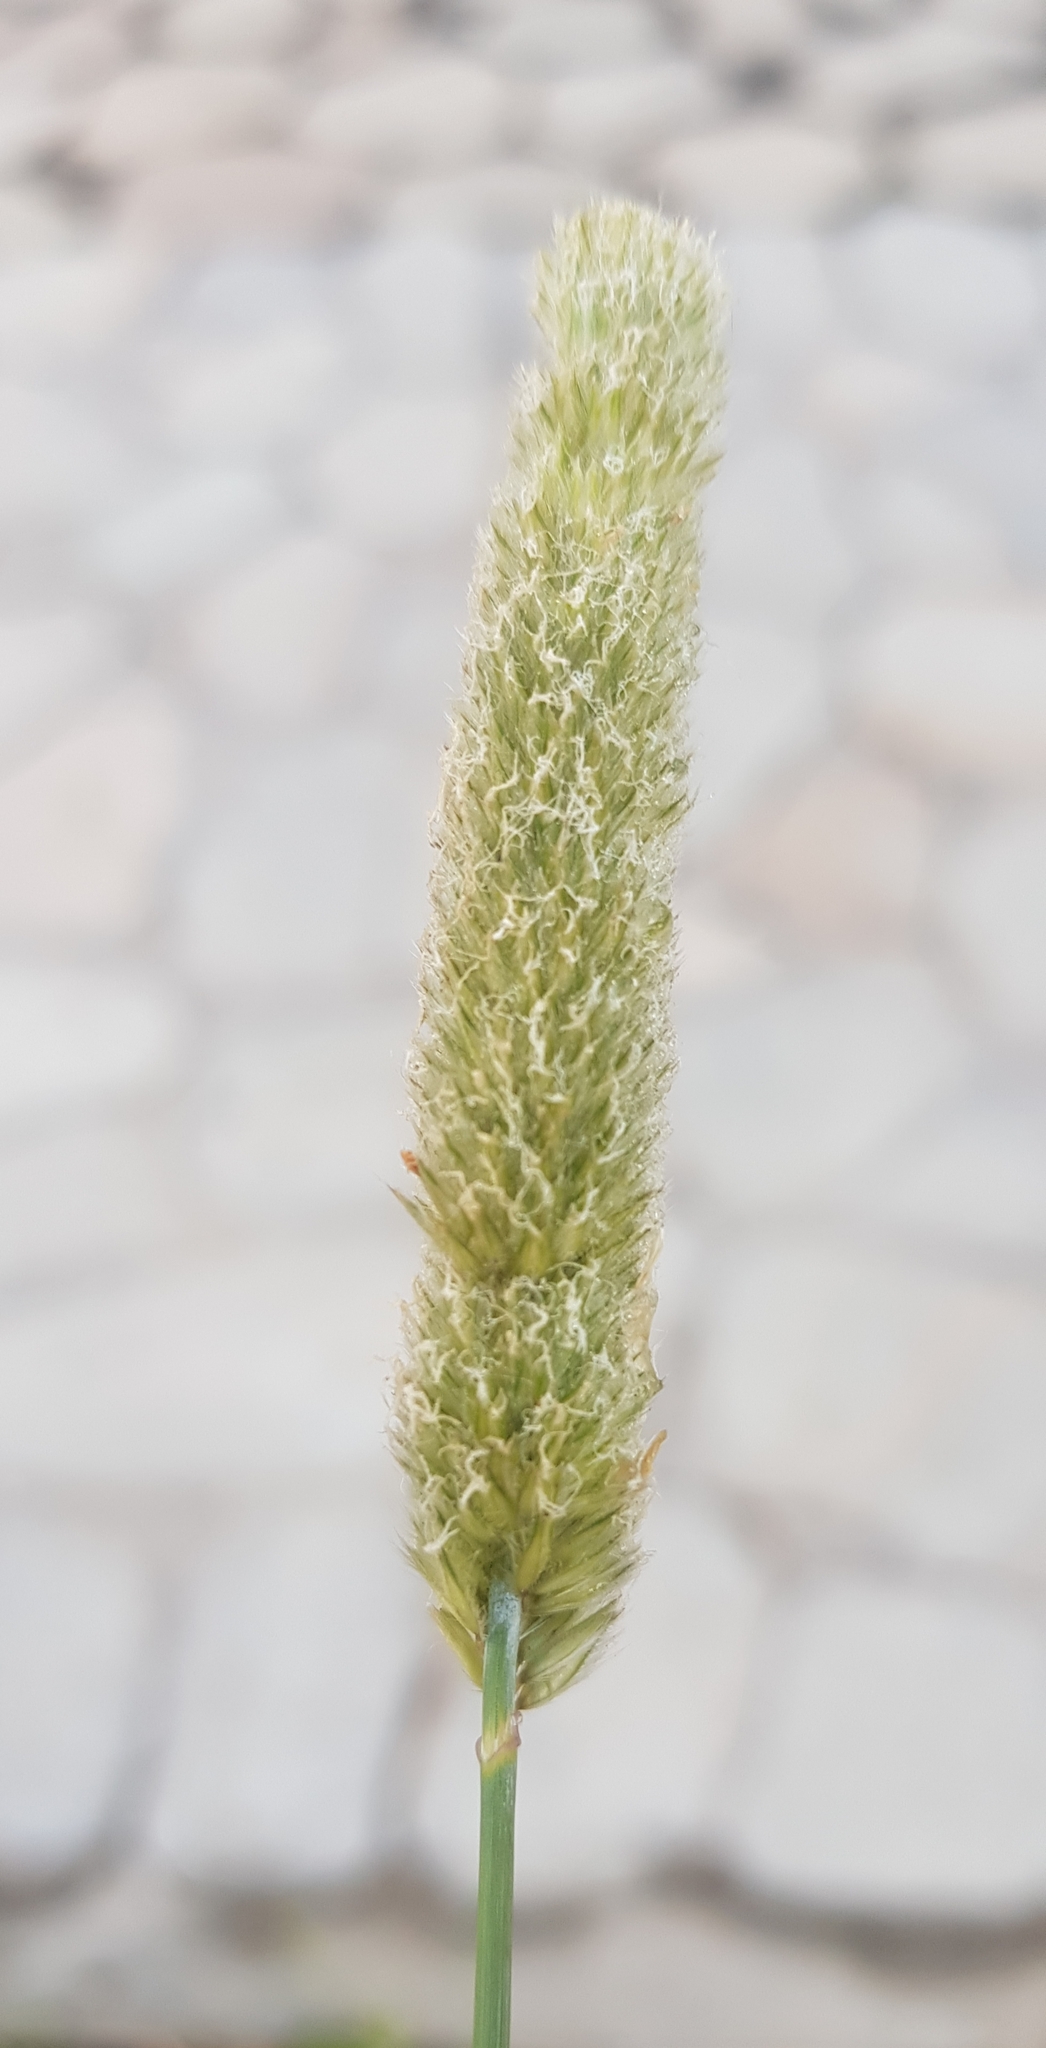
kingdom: Plantae
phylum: Tracheophyta
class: Liliopsida
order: Poales
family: Poaceae
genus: Alopecurus
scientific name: Alopecurus arundinaceus
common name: Creeping meadow foxtail
